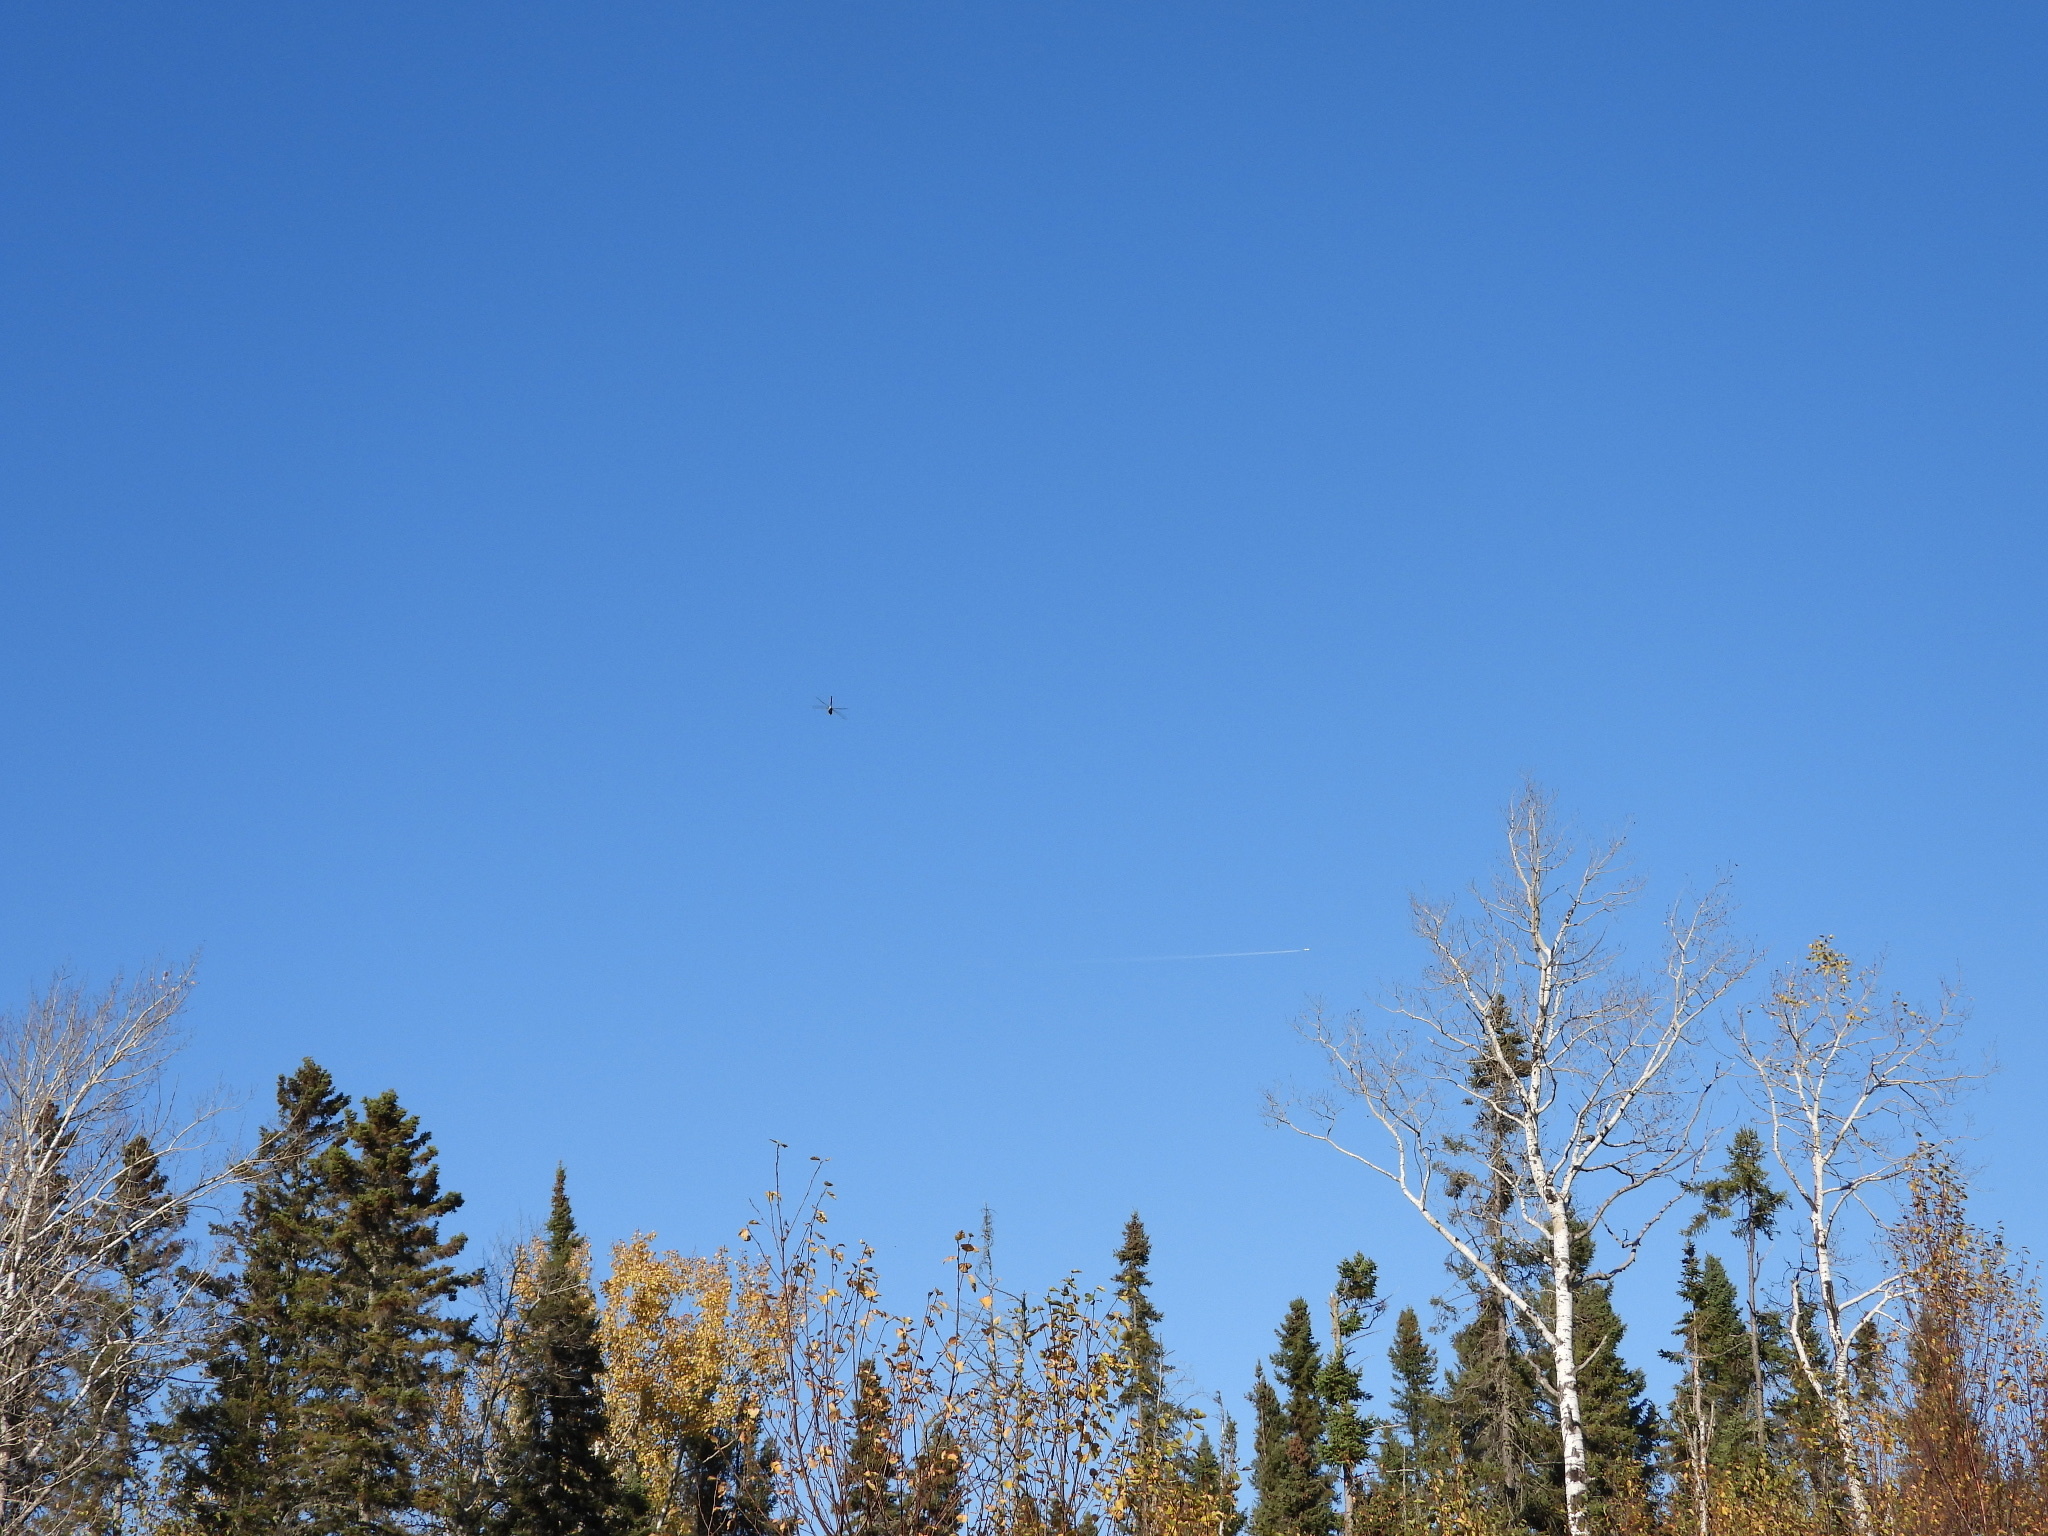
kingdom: Animalia
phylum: Arthropoda
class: Insecta
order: Odonata
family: Aeshnidae
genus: Anax
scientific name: Anax junius
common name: Common green darner
